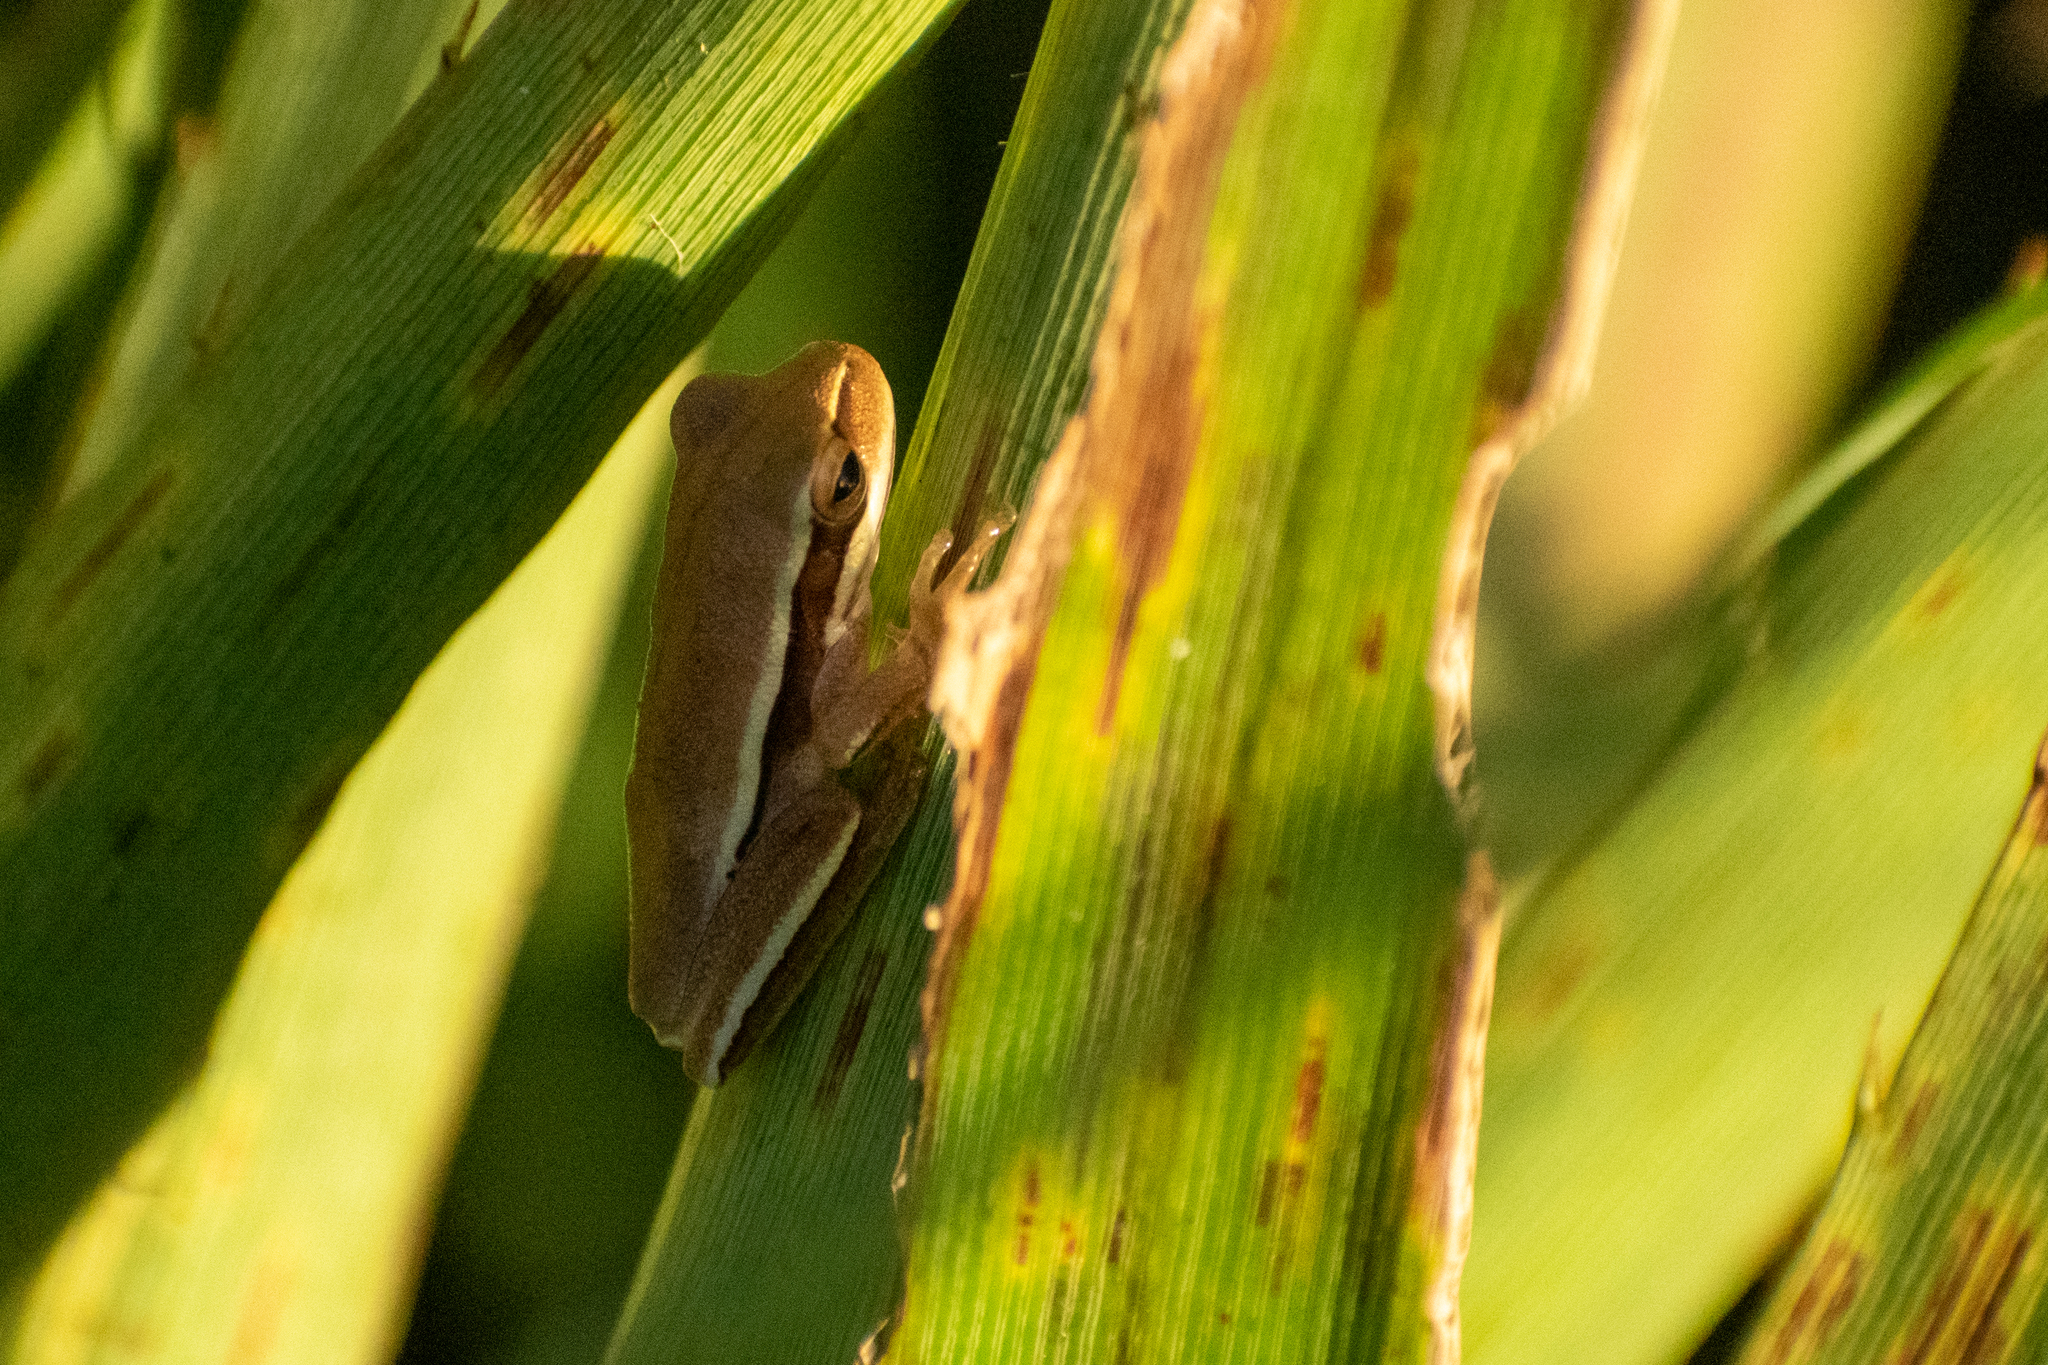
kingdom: Animalia
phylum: Chordata
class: Amphibia
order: Anura
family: Hylidae
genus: Boana
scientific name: Boana pulchella
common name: Montevideo treefrog
